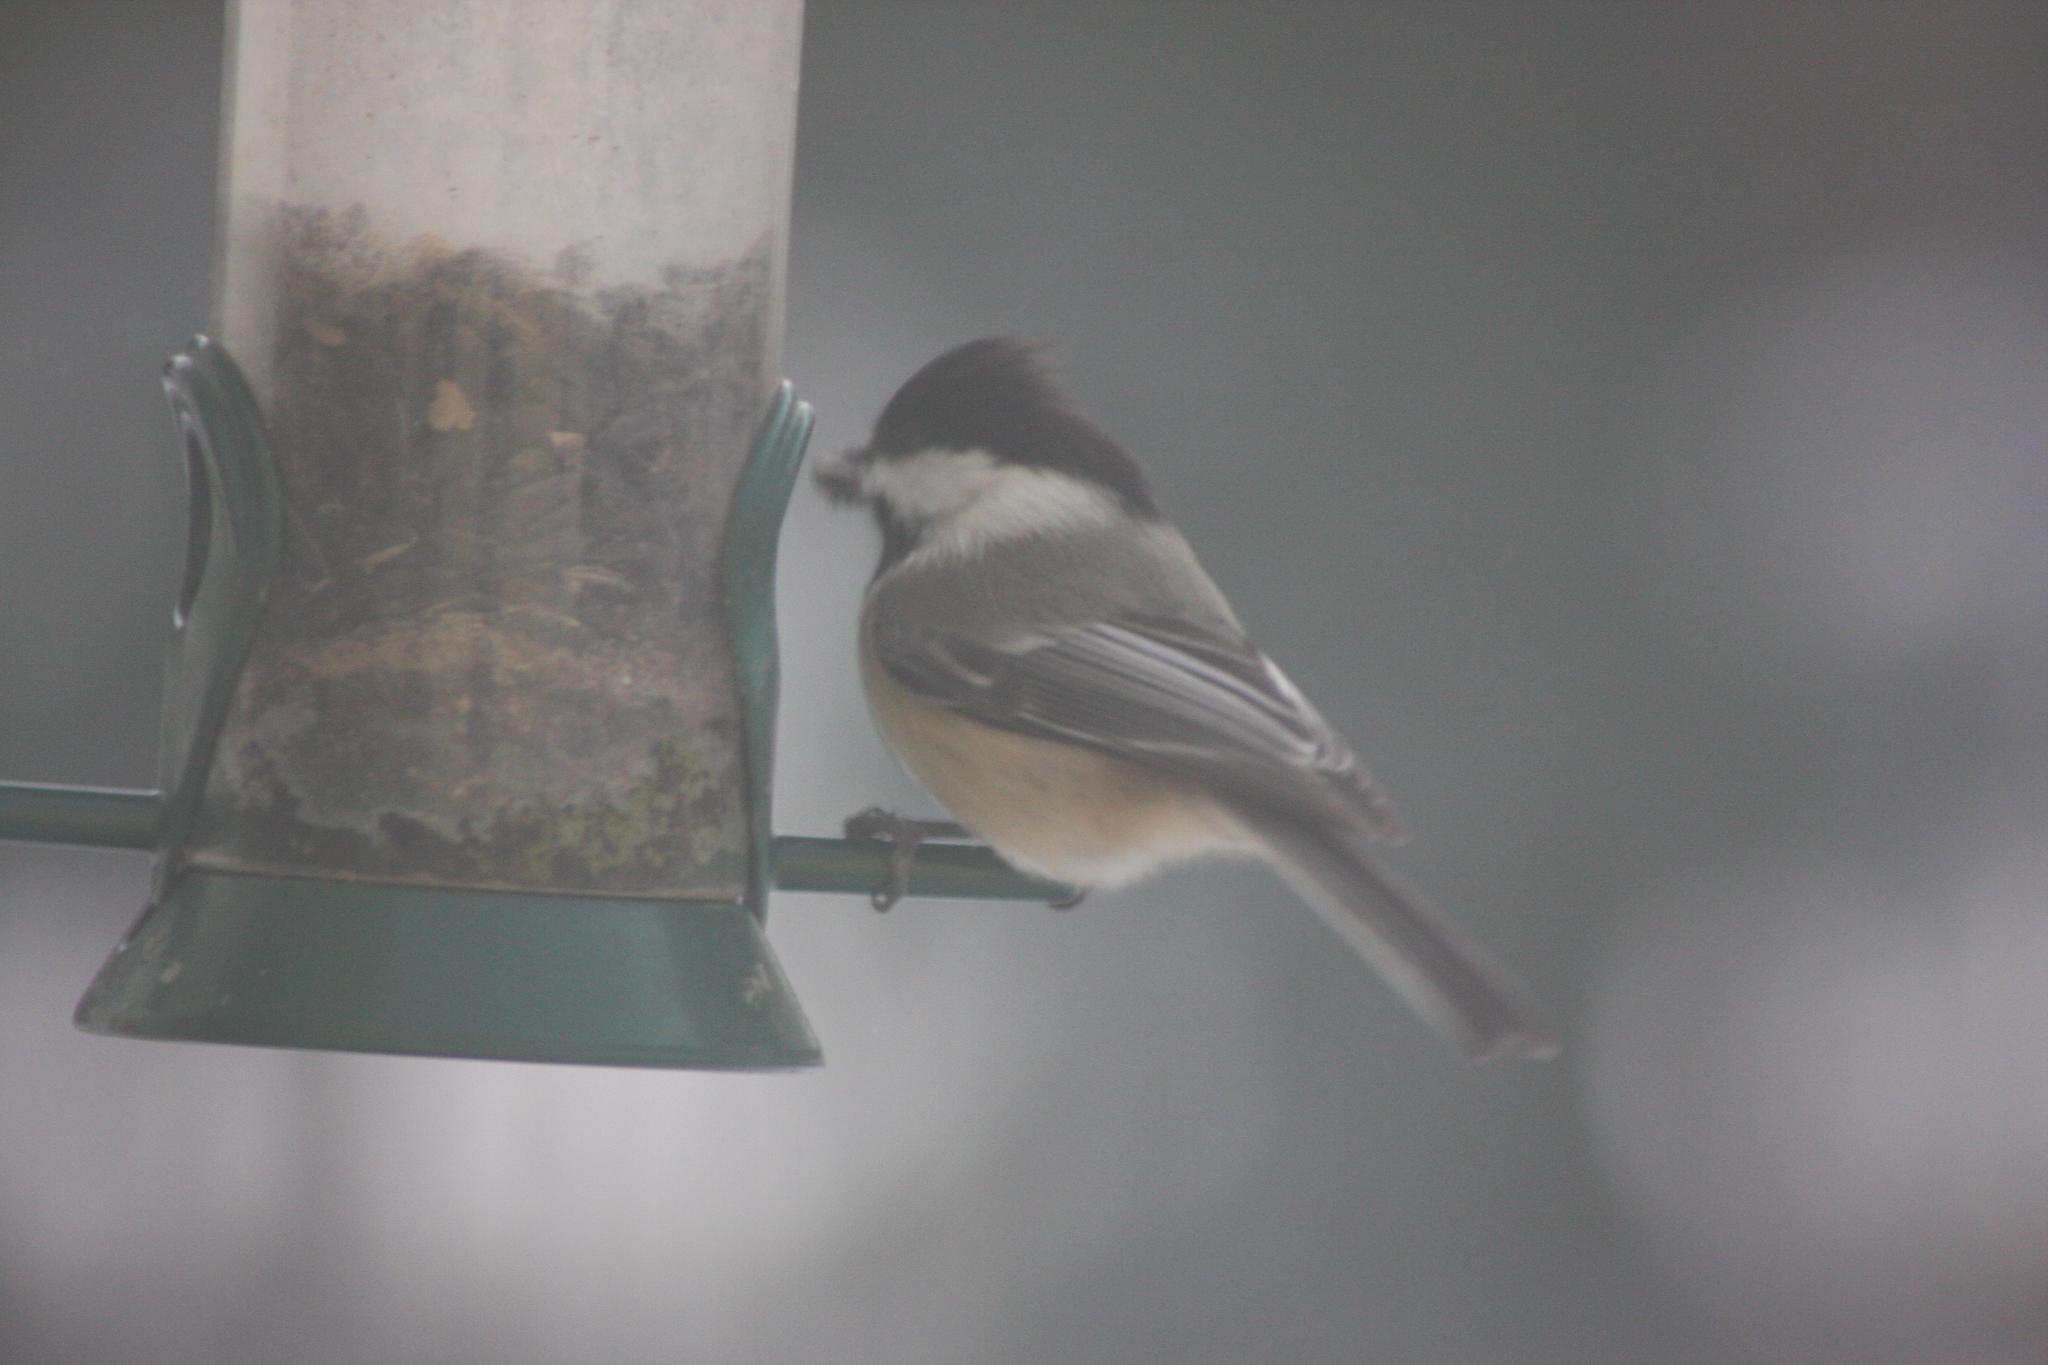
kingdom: Animalia
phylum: Chordata
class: Aves
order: Passeriformes
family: Paridae
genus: Poecile
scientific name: Poecile atricapillus
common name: Black-capped chickadee
